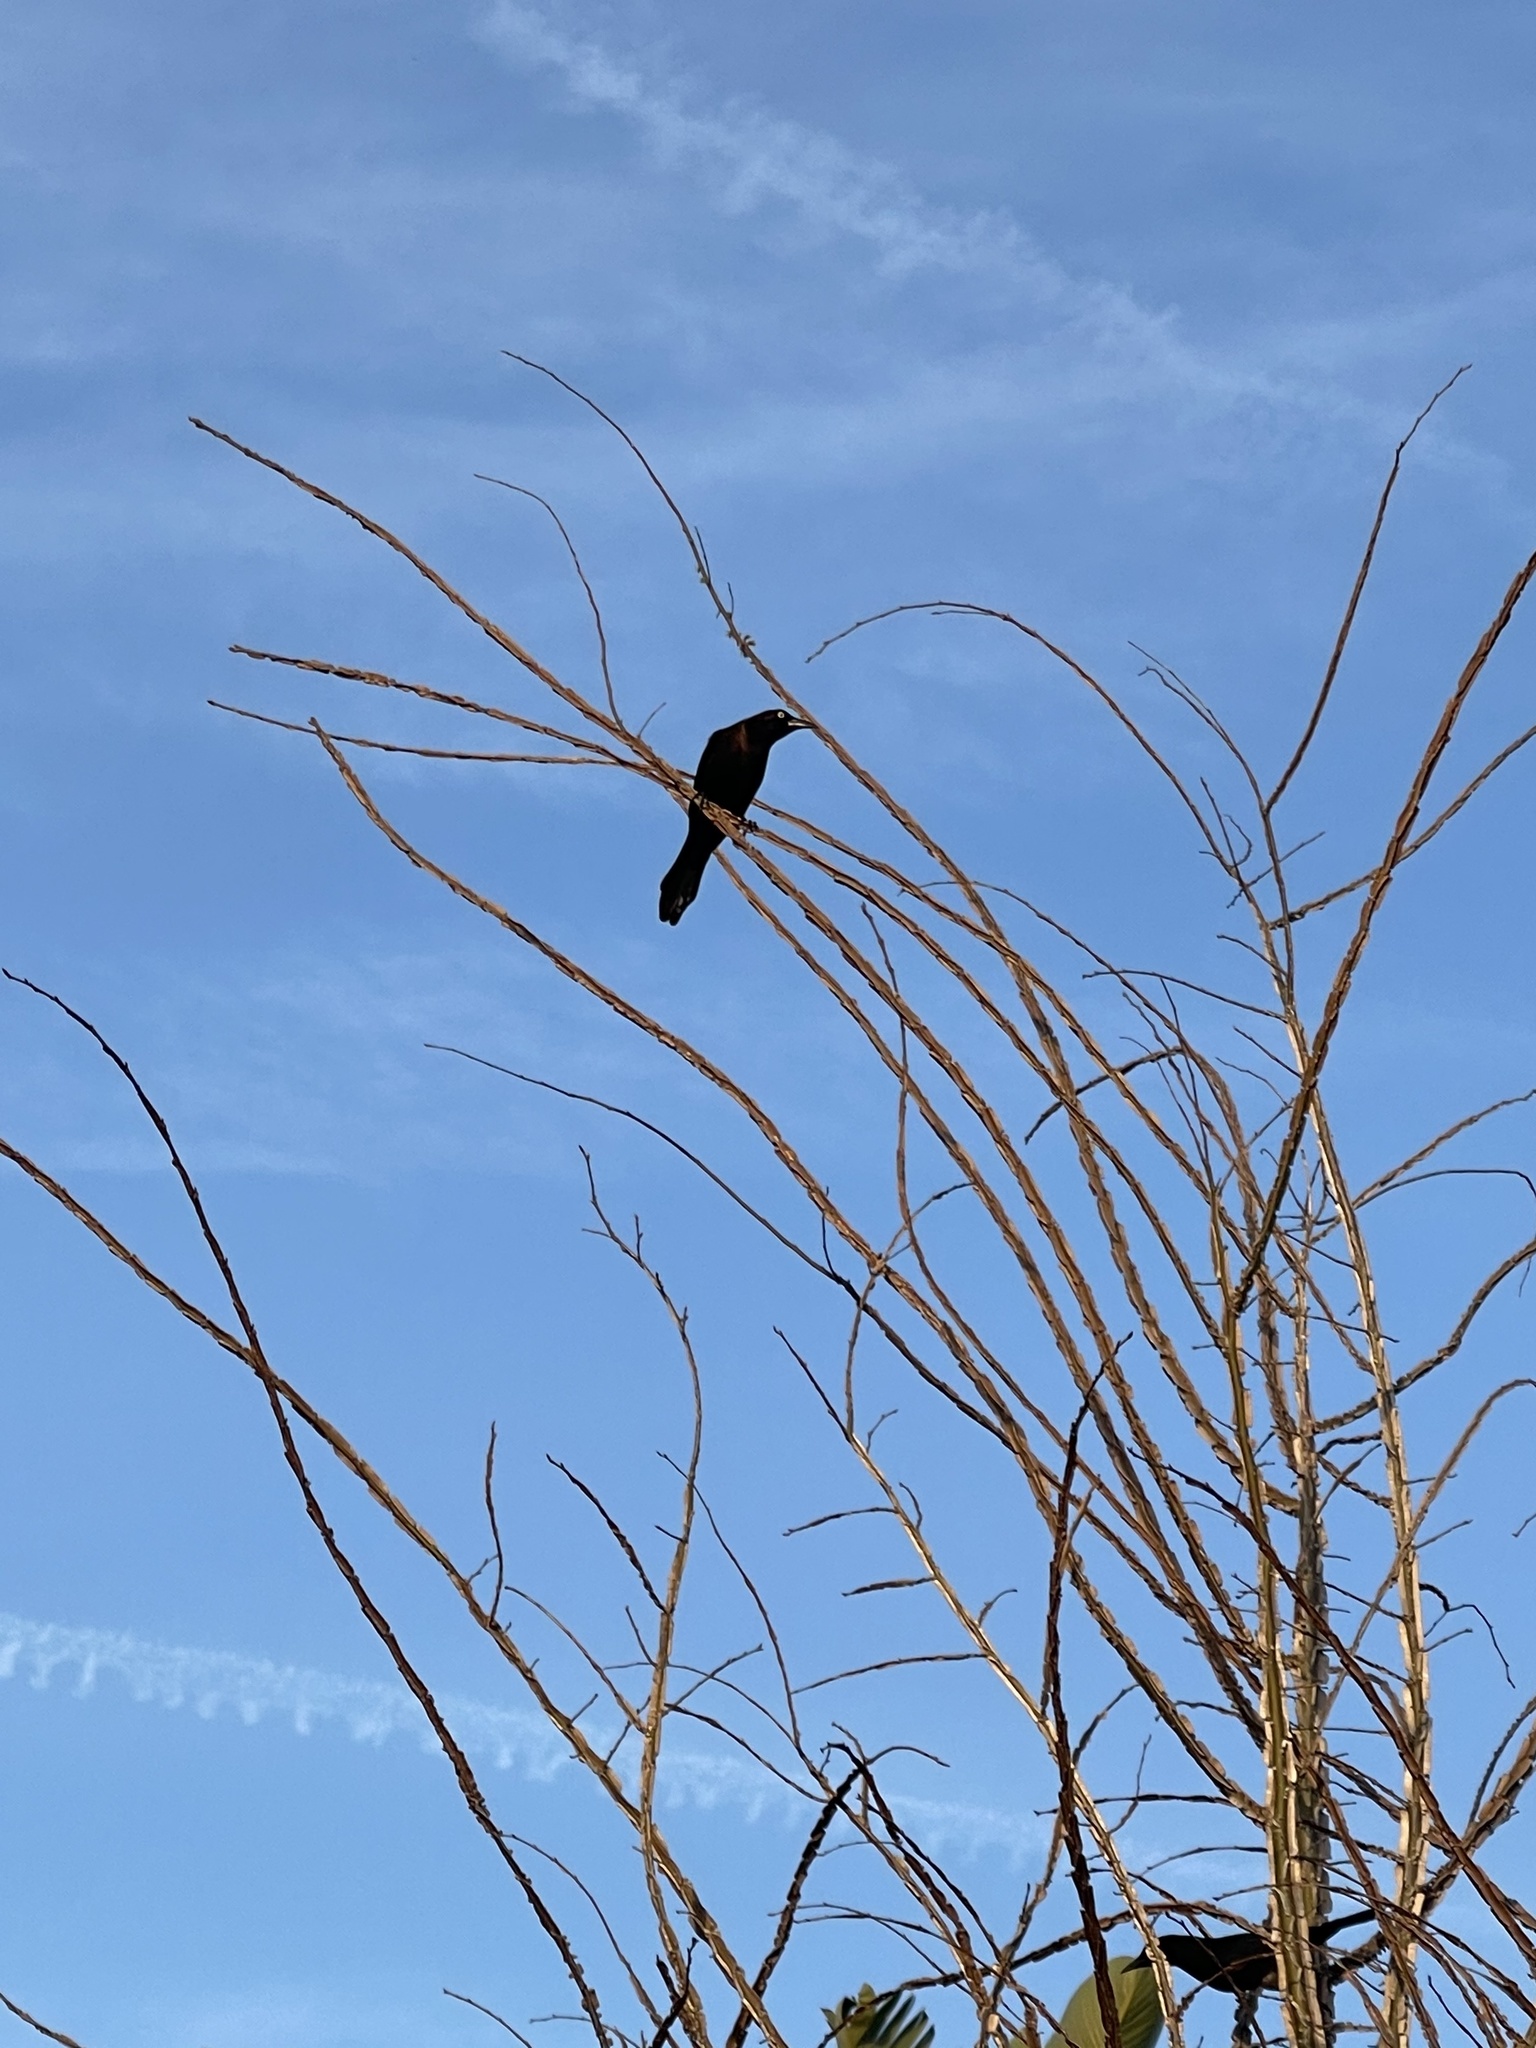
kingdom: Animalia
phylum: Chordata
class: Aves
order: Passeriformes
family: Icteridae
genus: Quiscalus
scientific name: Quiscalus quiscula
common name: Common grackle
